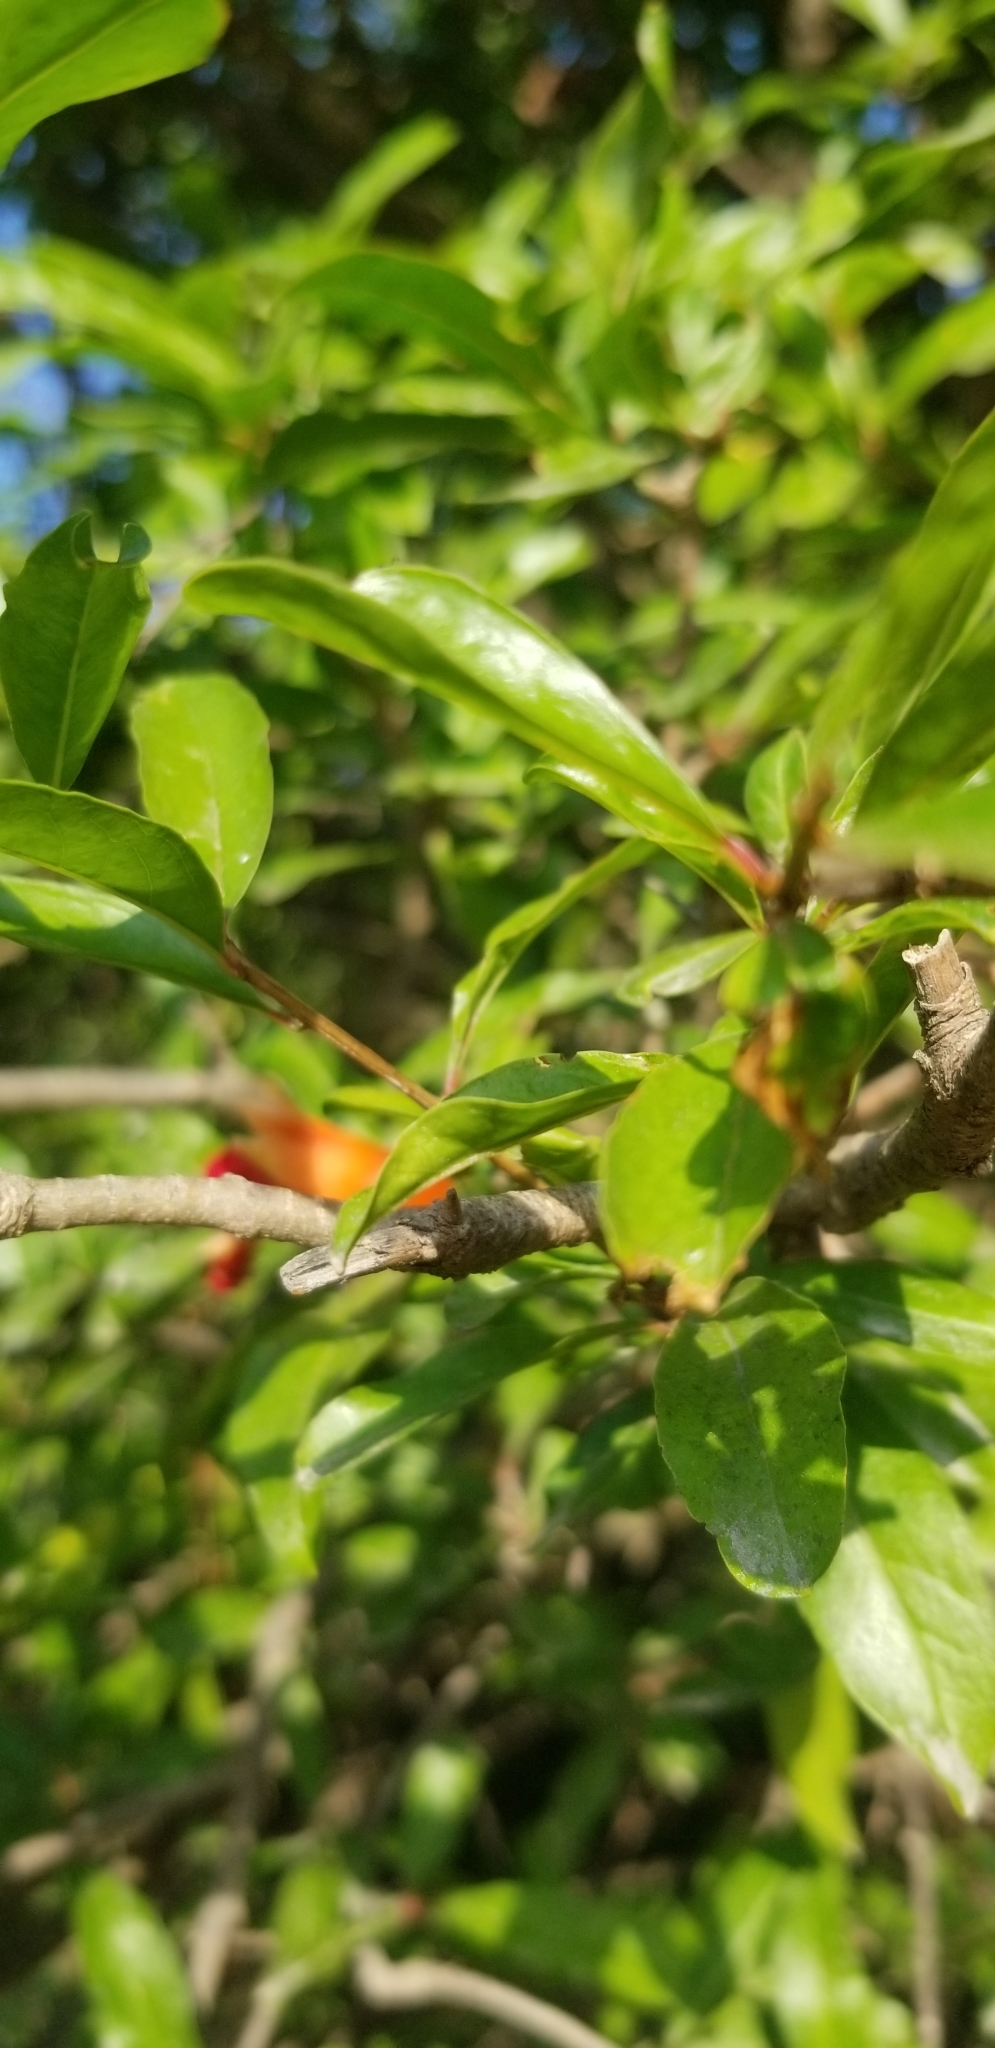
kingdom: Plantae
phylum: Tracheophyta
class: Magnoliopsida
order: Myrtales
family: Lythraceae
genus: Punica
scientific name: Punica granatum
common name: Pomegranate
